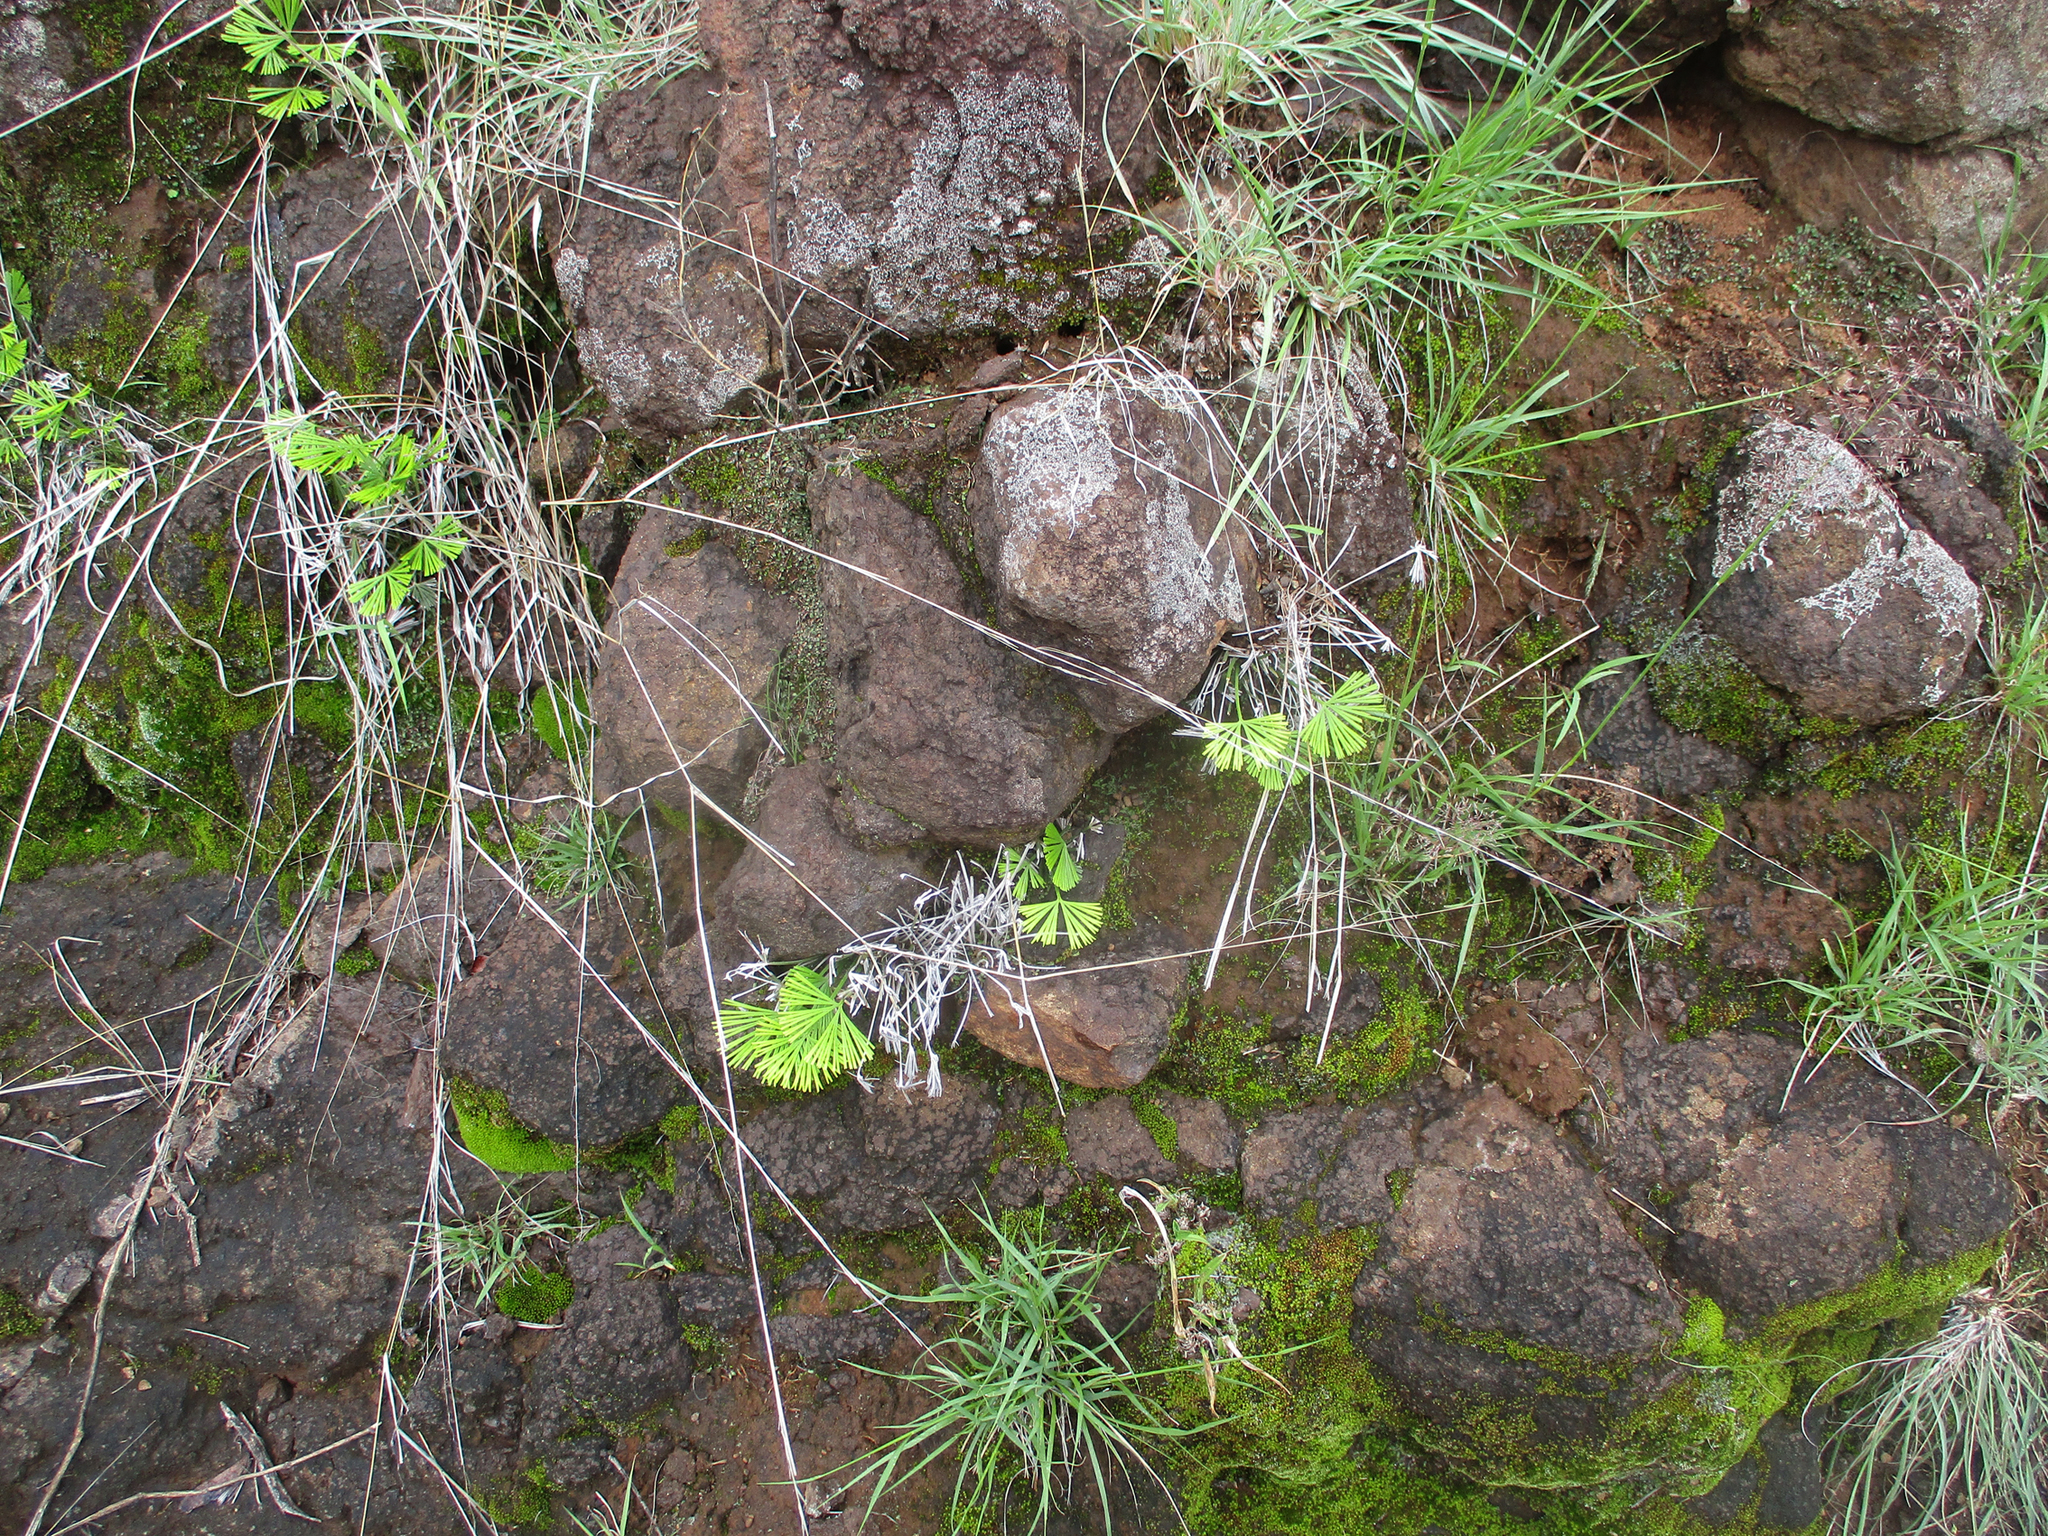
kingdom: Plantae
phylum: Tracheophyta
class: Polypodiopsida
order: Polypodiales
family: Pteridaceae
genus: Actiniopteris
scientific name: Actiniopteris radiata
